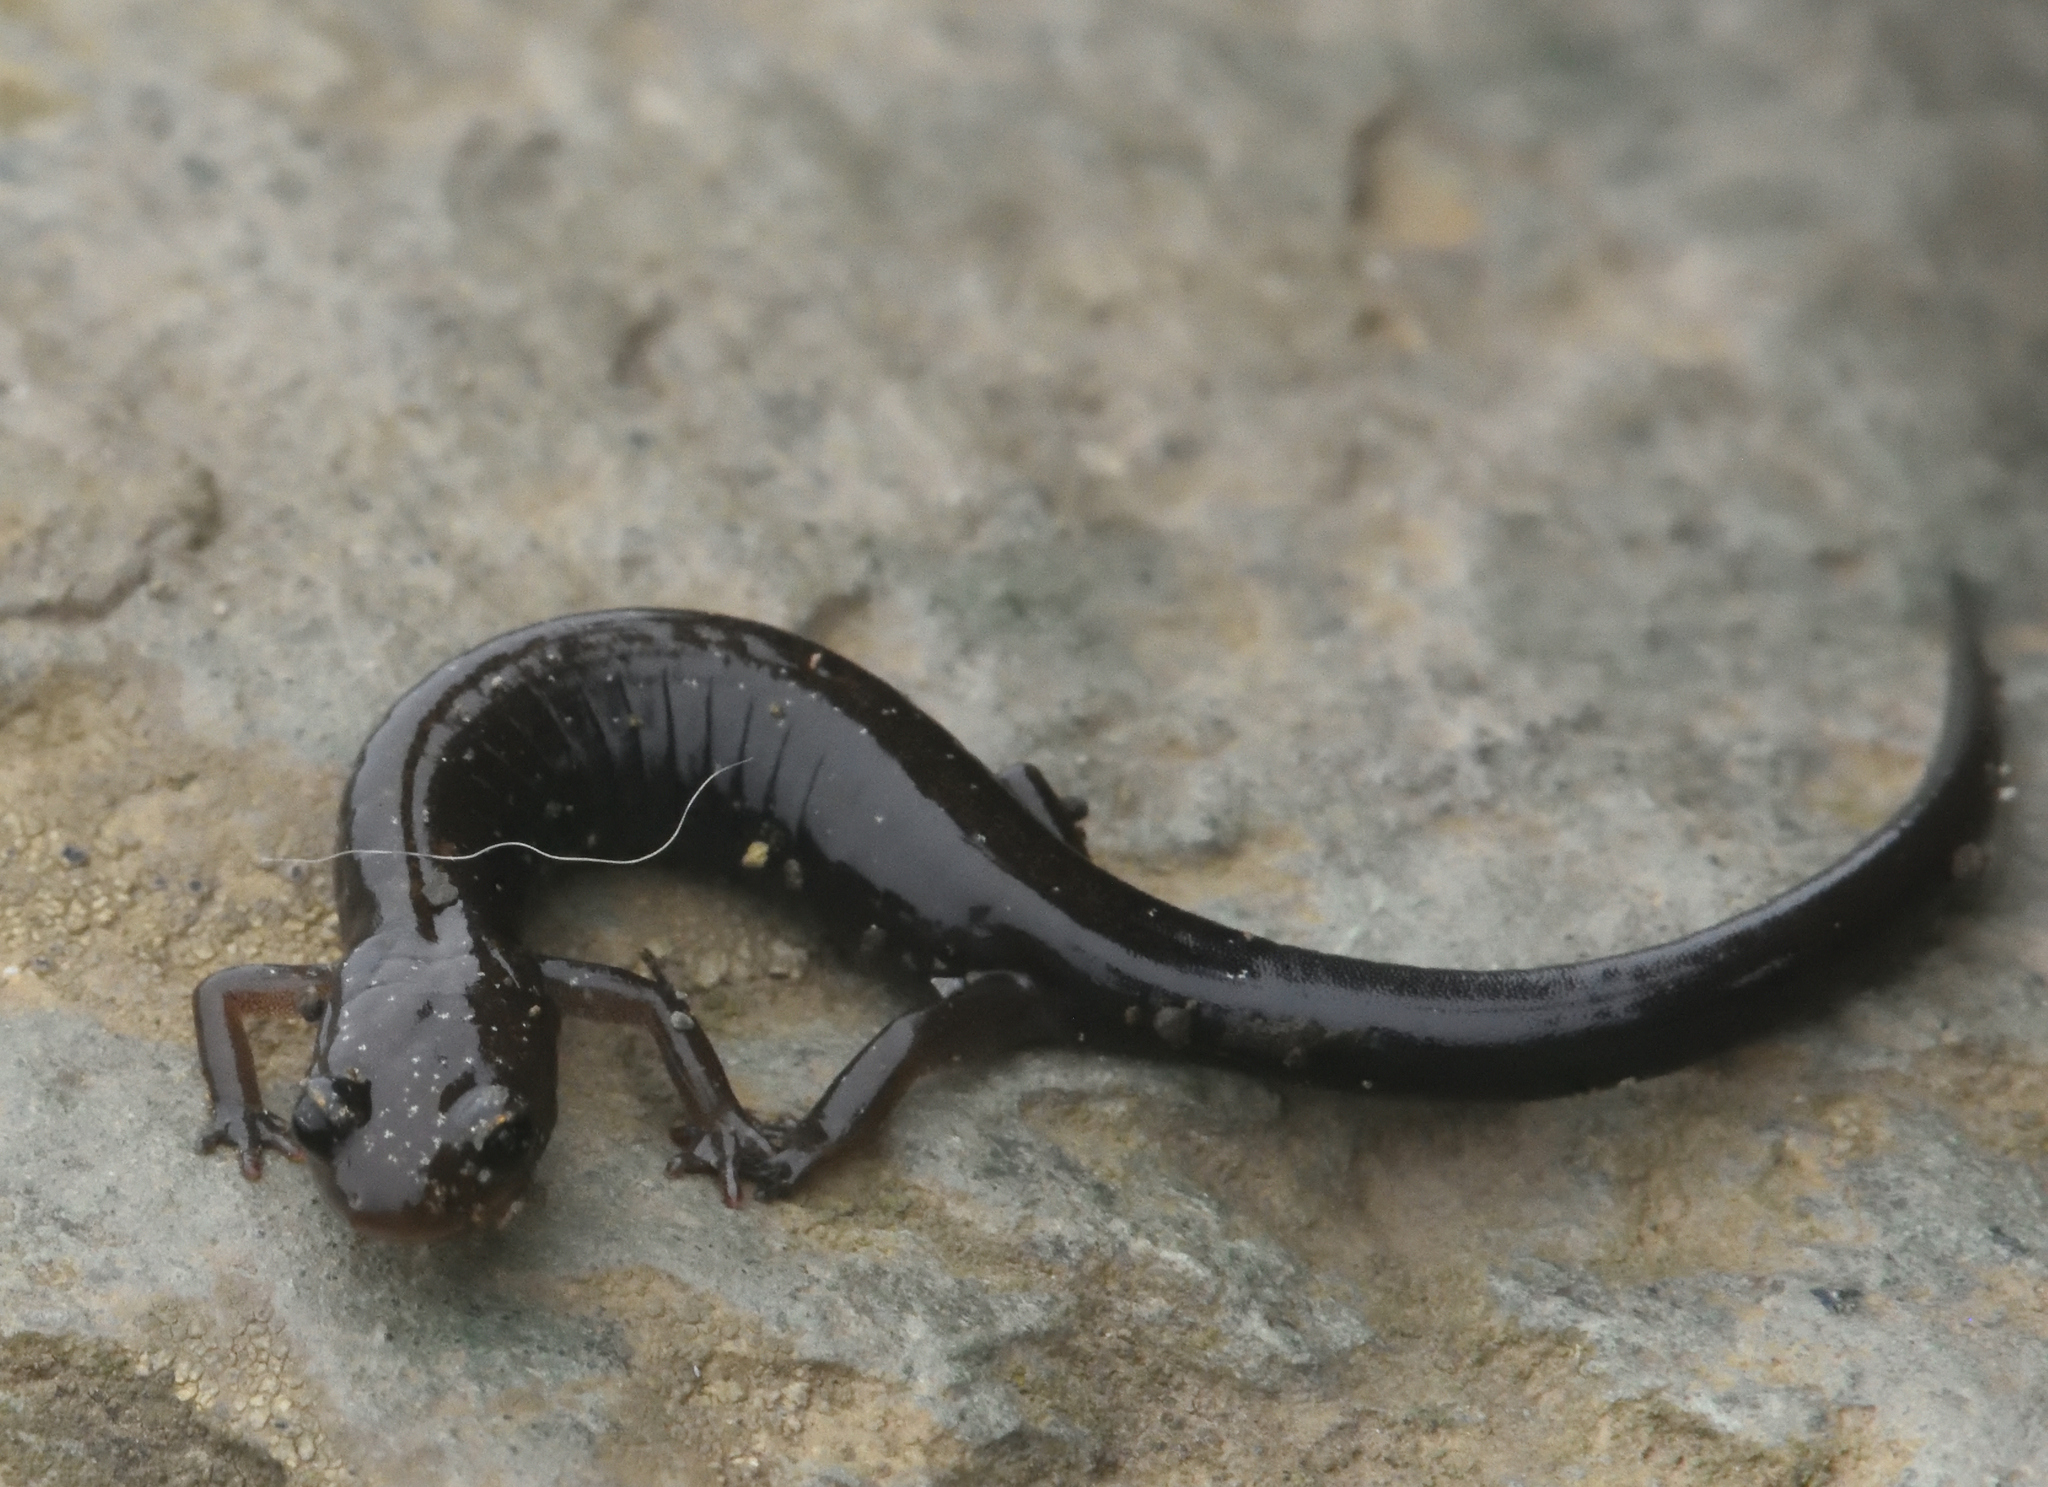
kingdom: Animalia
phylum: Chordata
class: Amphibia
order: Caudata
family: Plethodontidae
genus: Plethodon
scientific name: Plethodon shenandoah
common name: Shenandoah salamander
